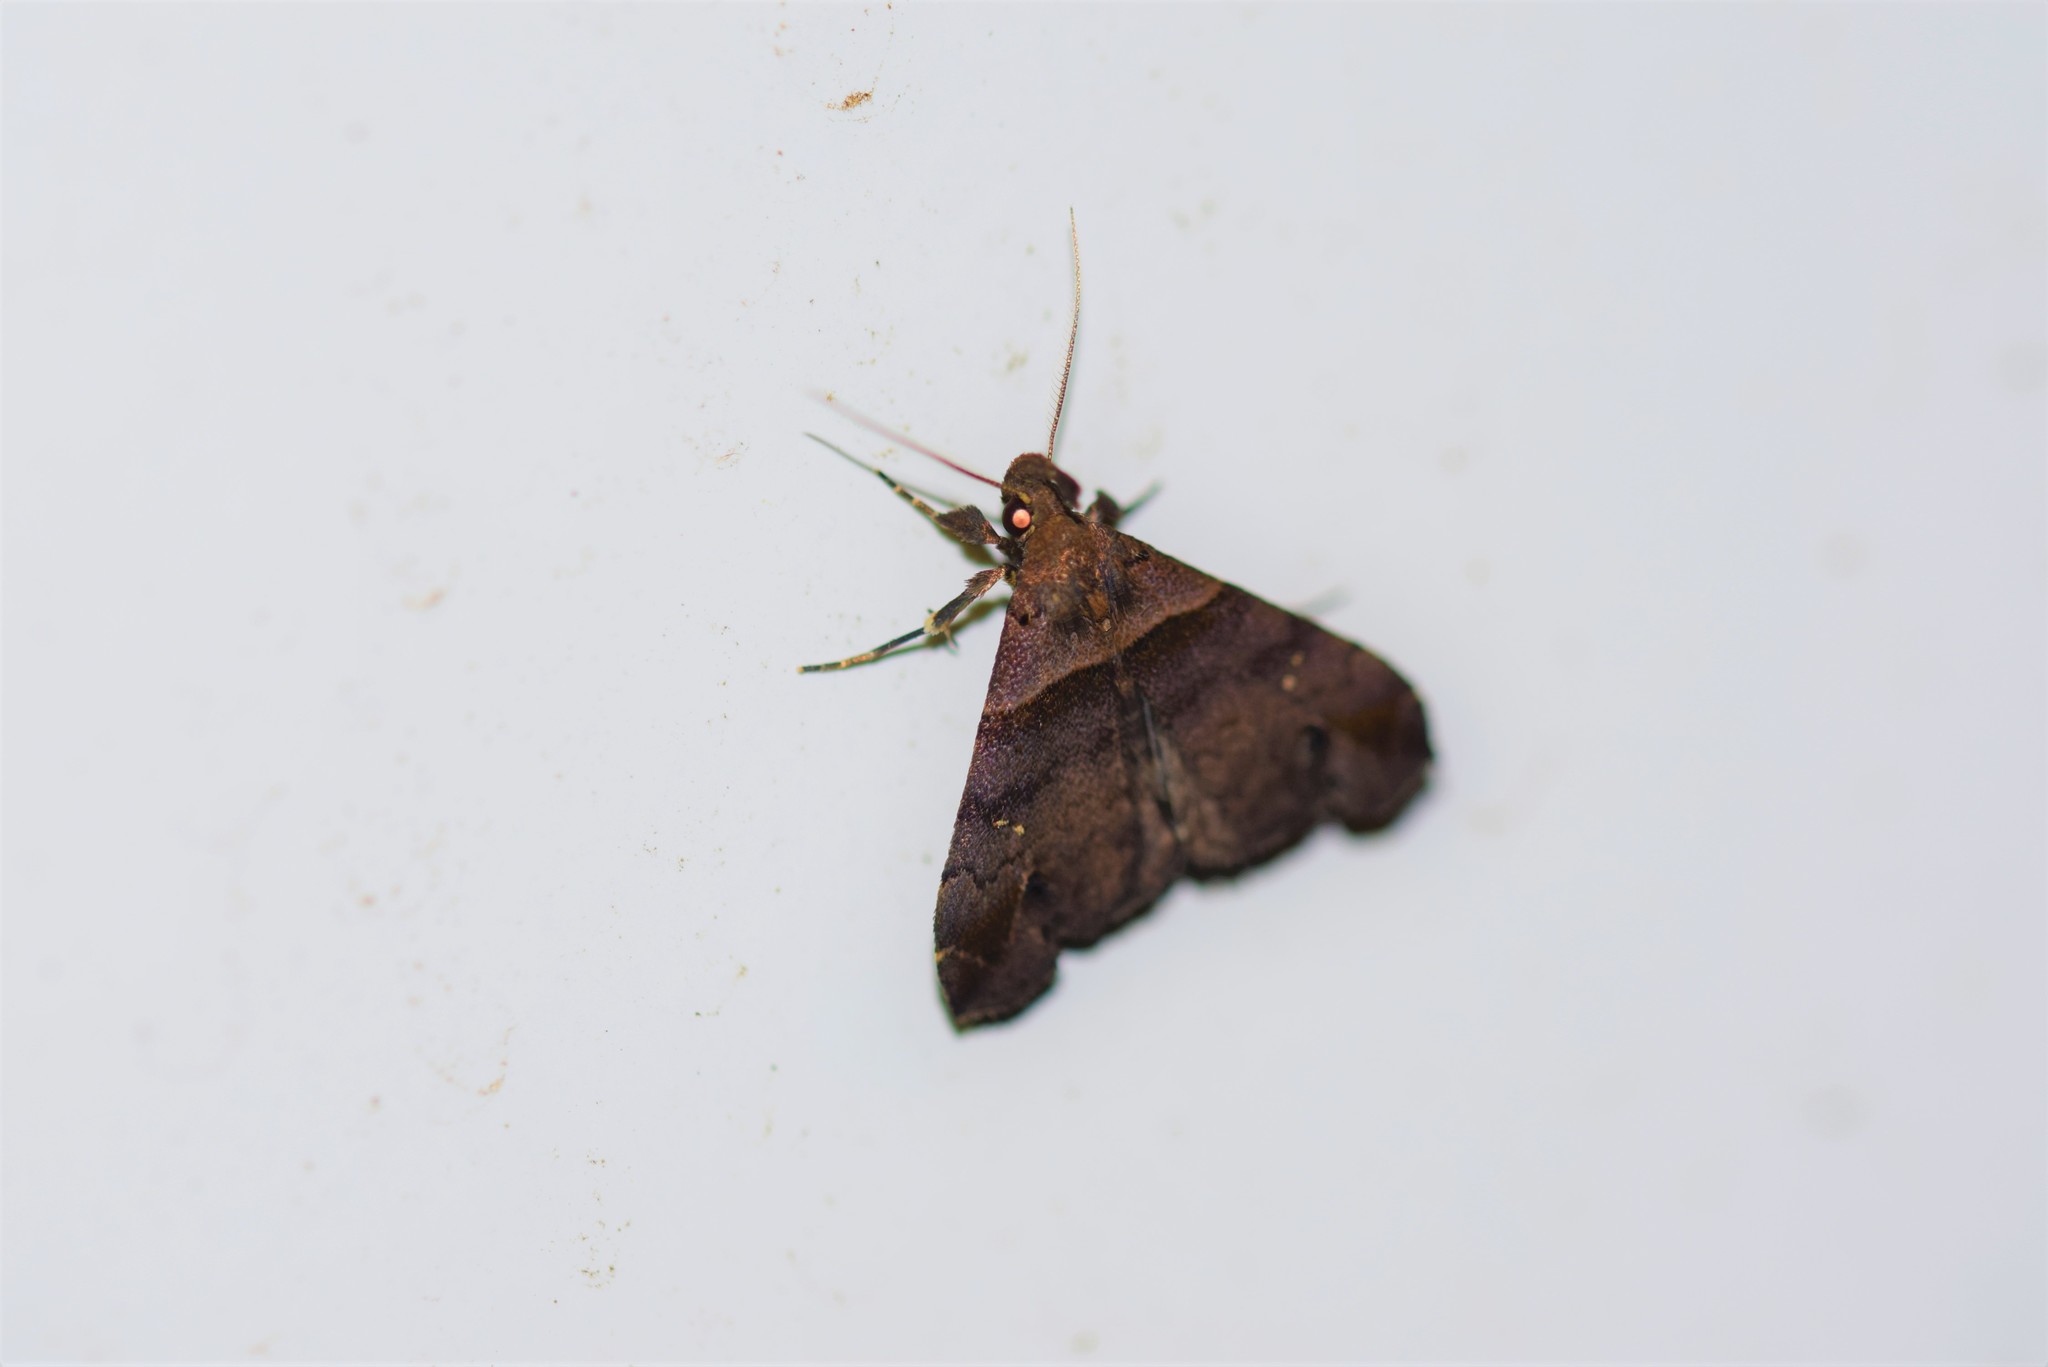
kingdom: Animalia
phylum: Arthropoda
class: Insecta
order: Lepidoptera
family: Erebidae
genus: Lascoria
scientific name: Lascoria ambigualis
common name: Ambiguous moth
